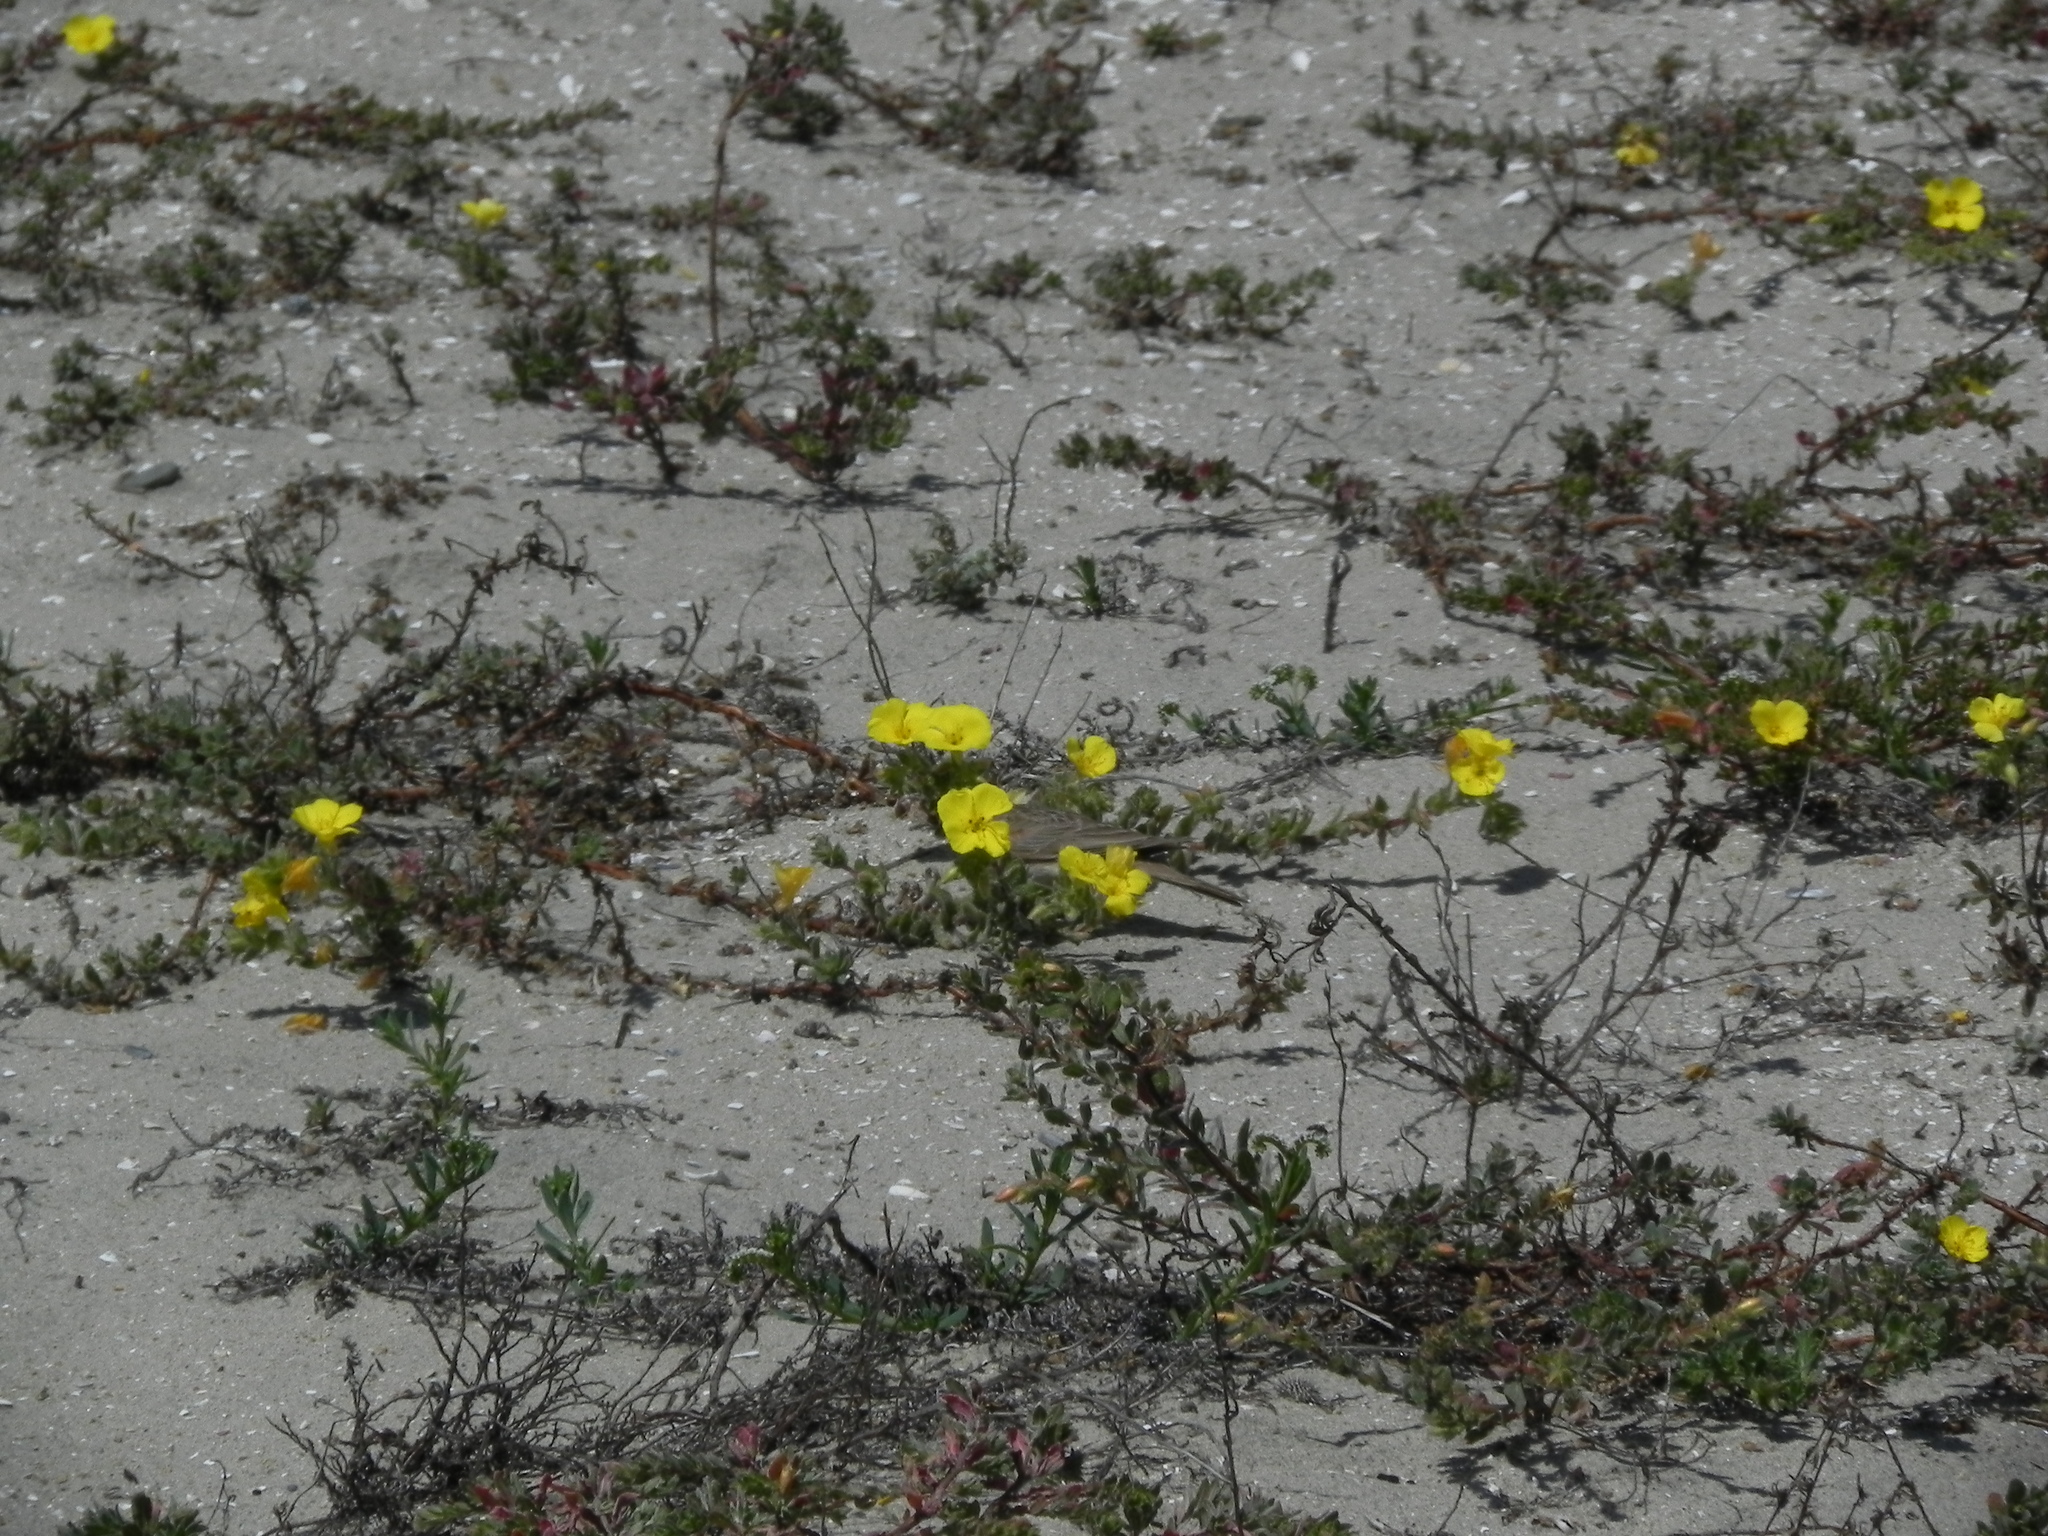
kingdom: Animalia
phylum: Chordata
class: Aves
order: Passeriformes
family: Alaudidae
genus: Eremophila
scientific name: Eremophila alpestris
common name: Horned lark
